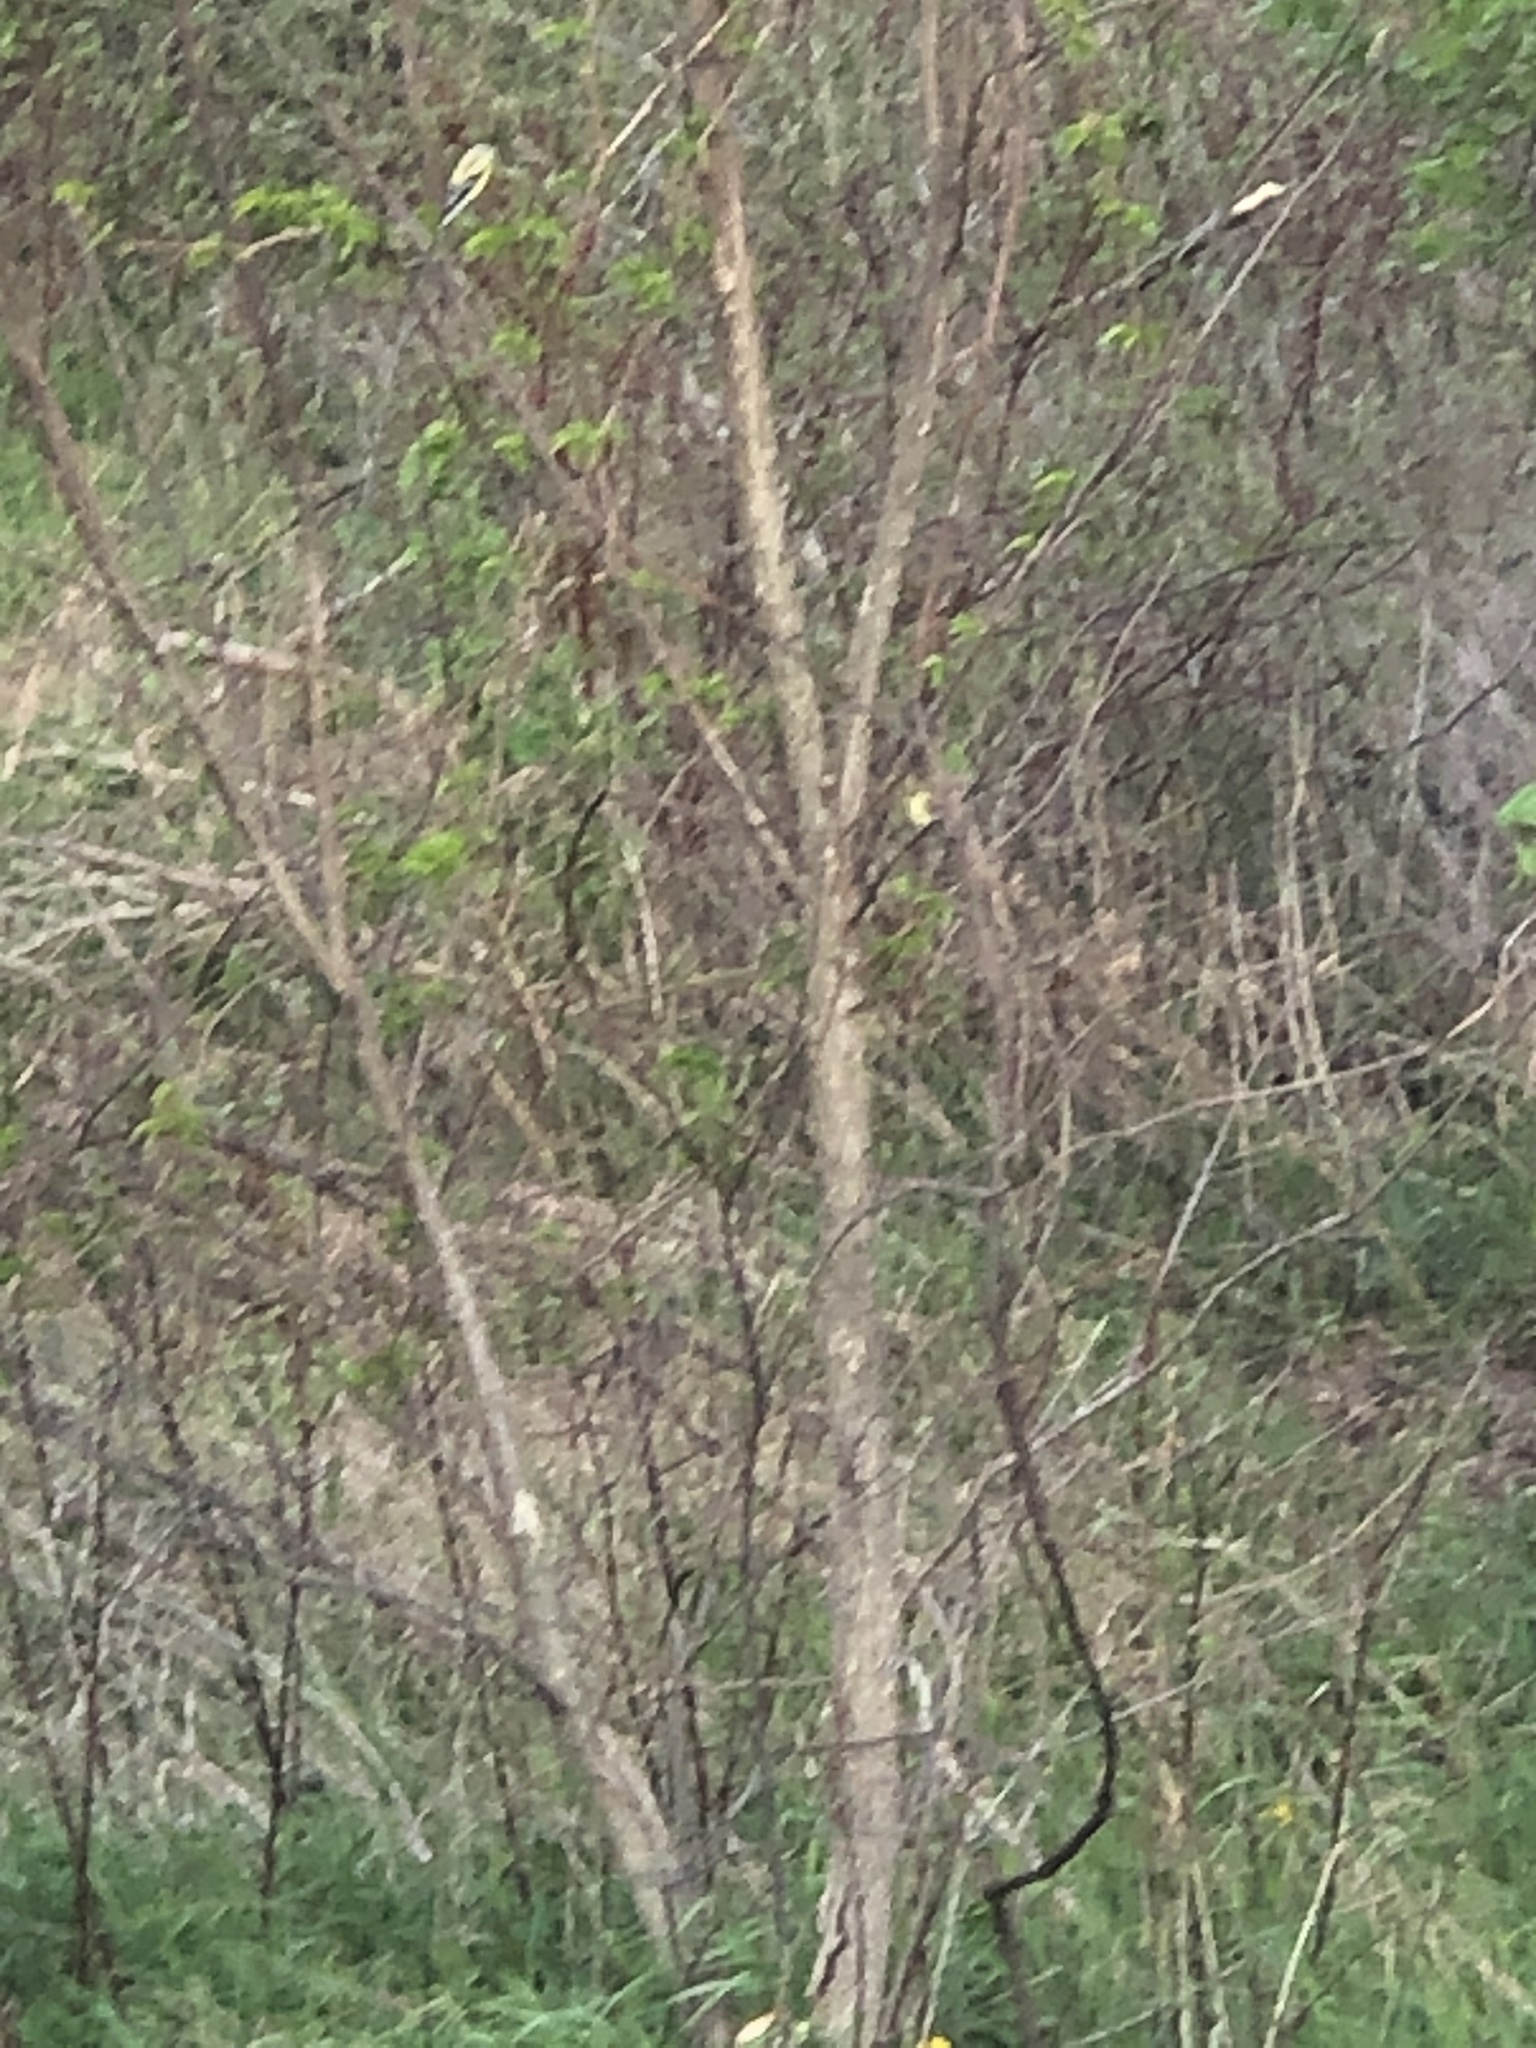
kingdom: Animalia
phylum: Chordata
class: Aves
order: Passeriformes
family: Fringillidae
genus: Spinus
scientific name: Spinus tristis
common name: American goldfinch
